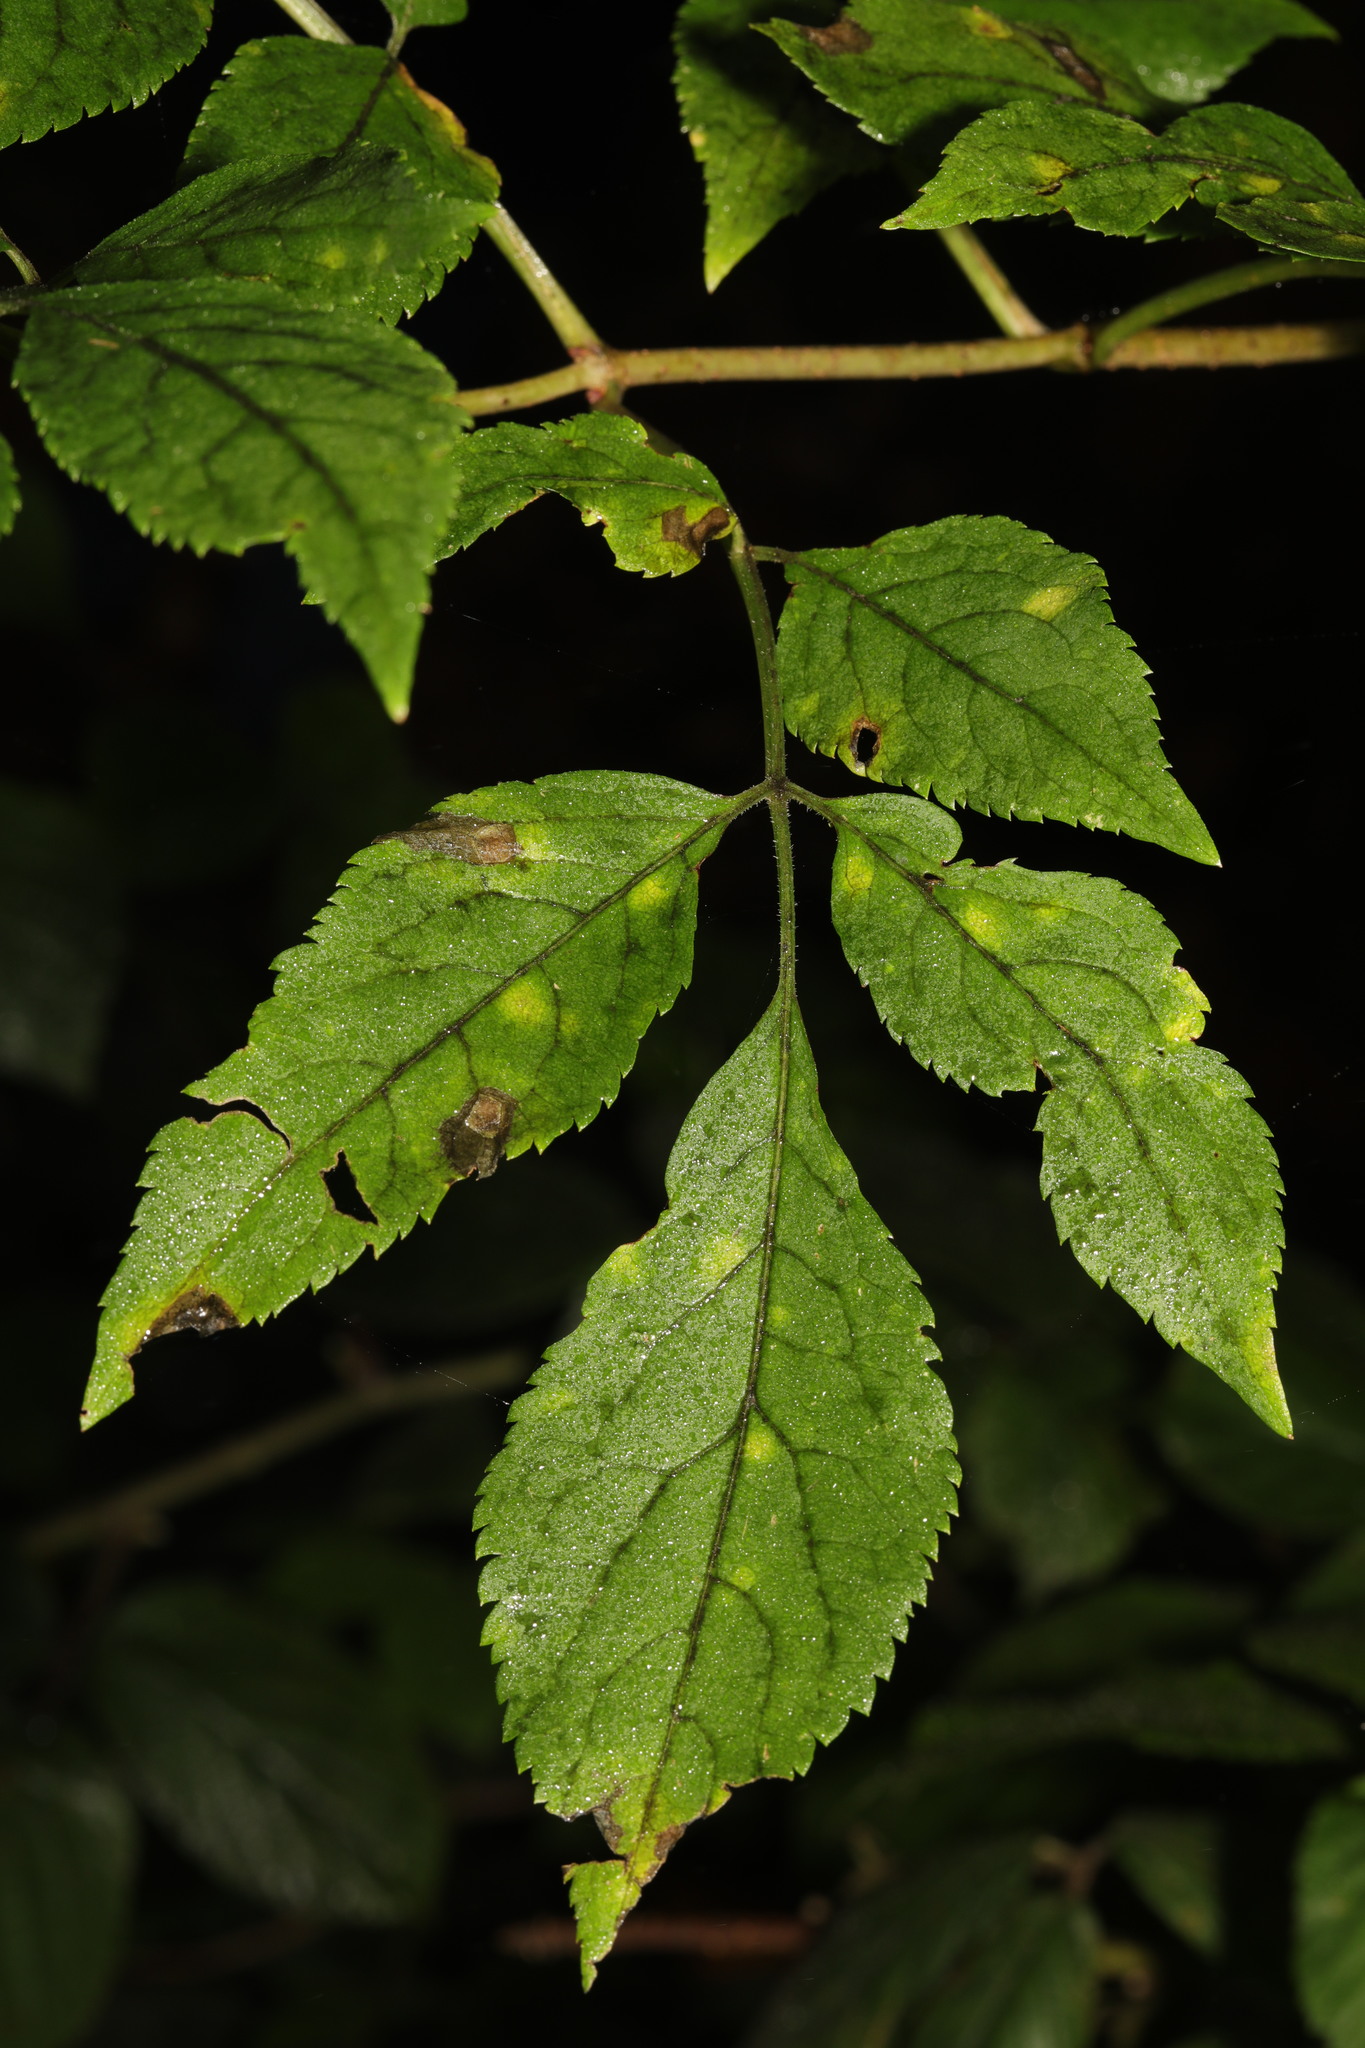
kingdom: Plantae
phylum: Tracheophyta
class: Magnoliopsida
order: Dipsacales
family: Viburnaceae
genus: Sambucus
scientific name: Sambucus nigra
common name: Elder
